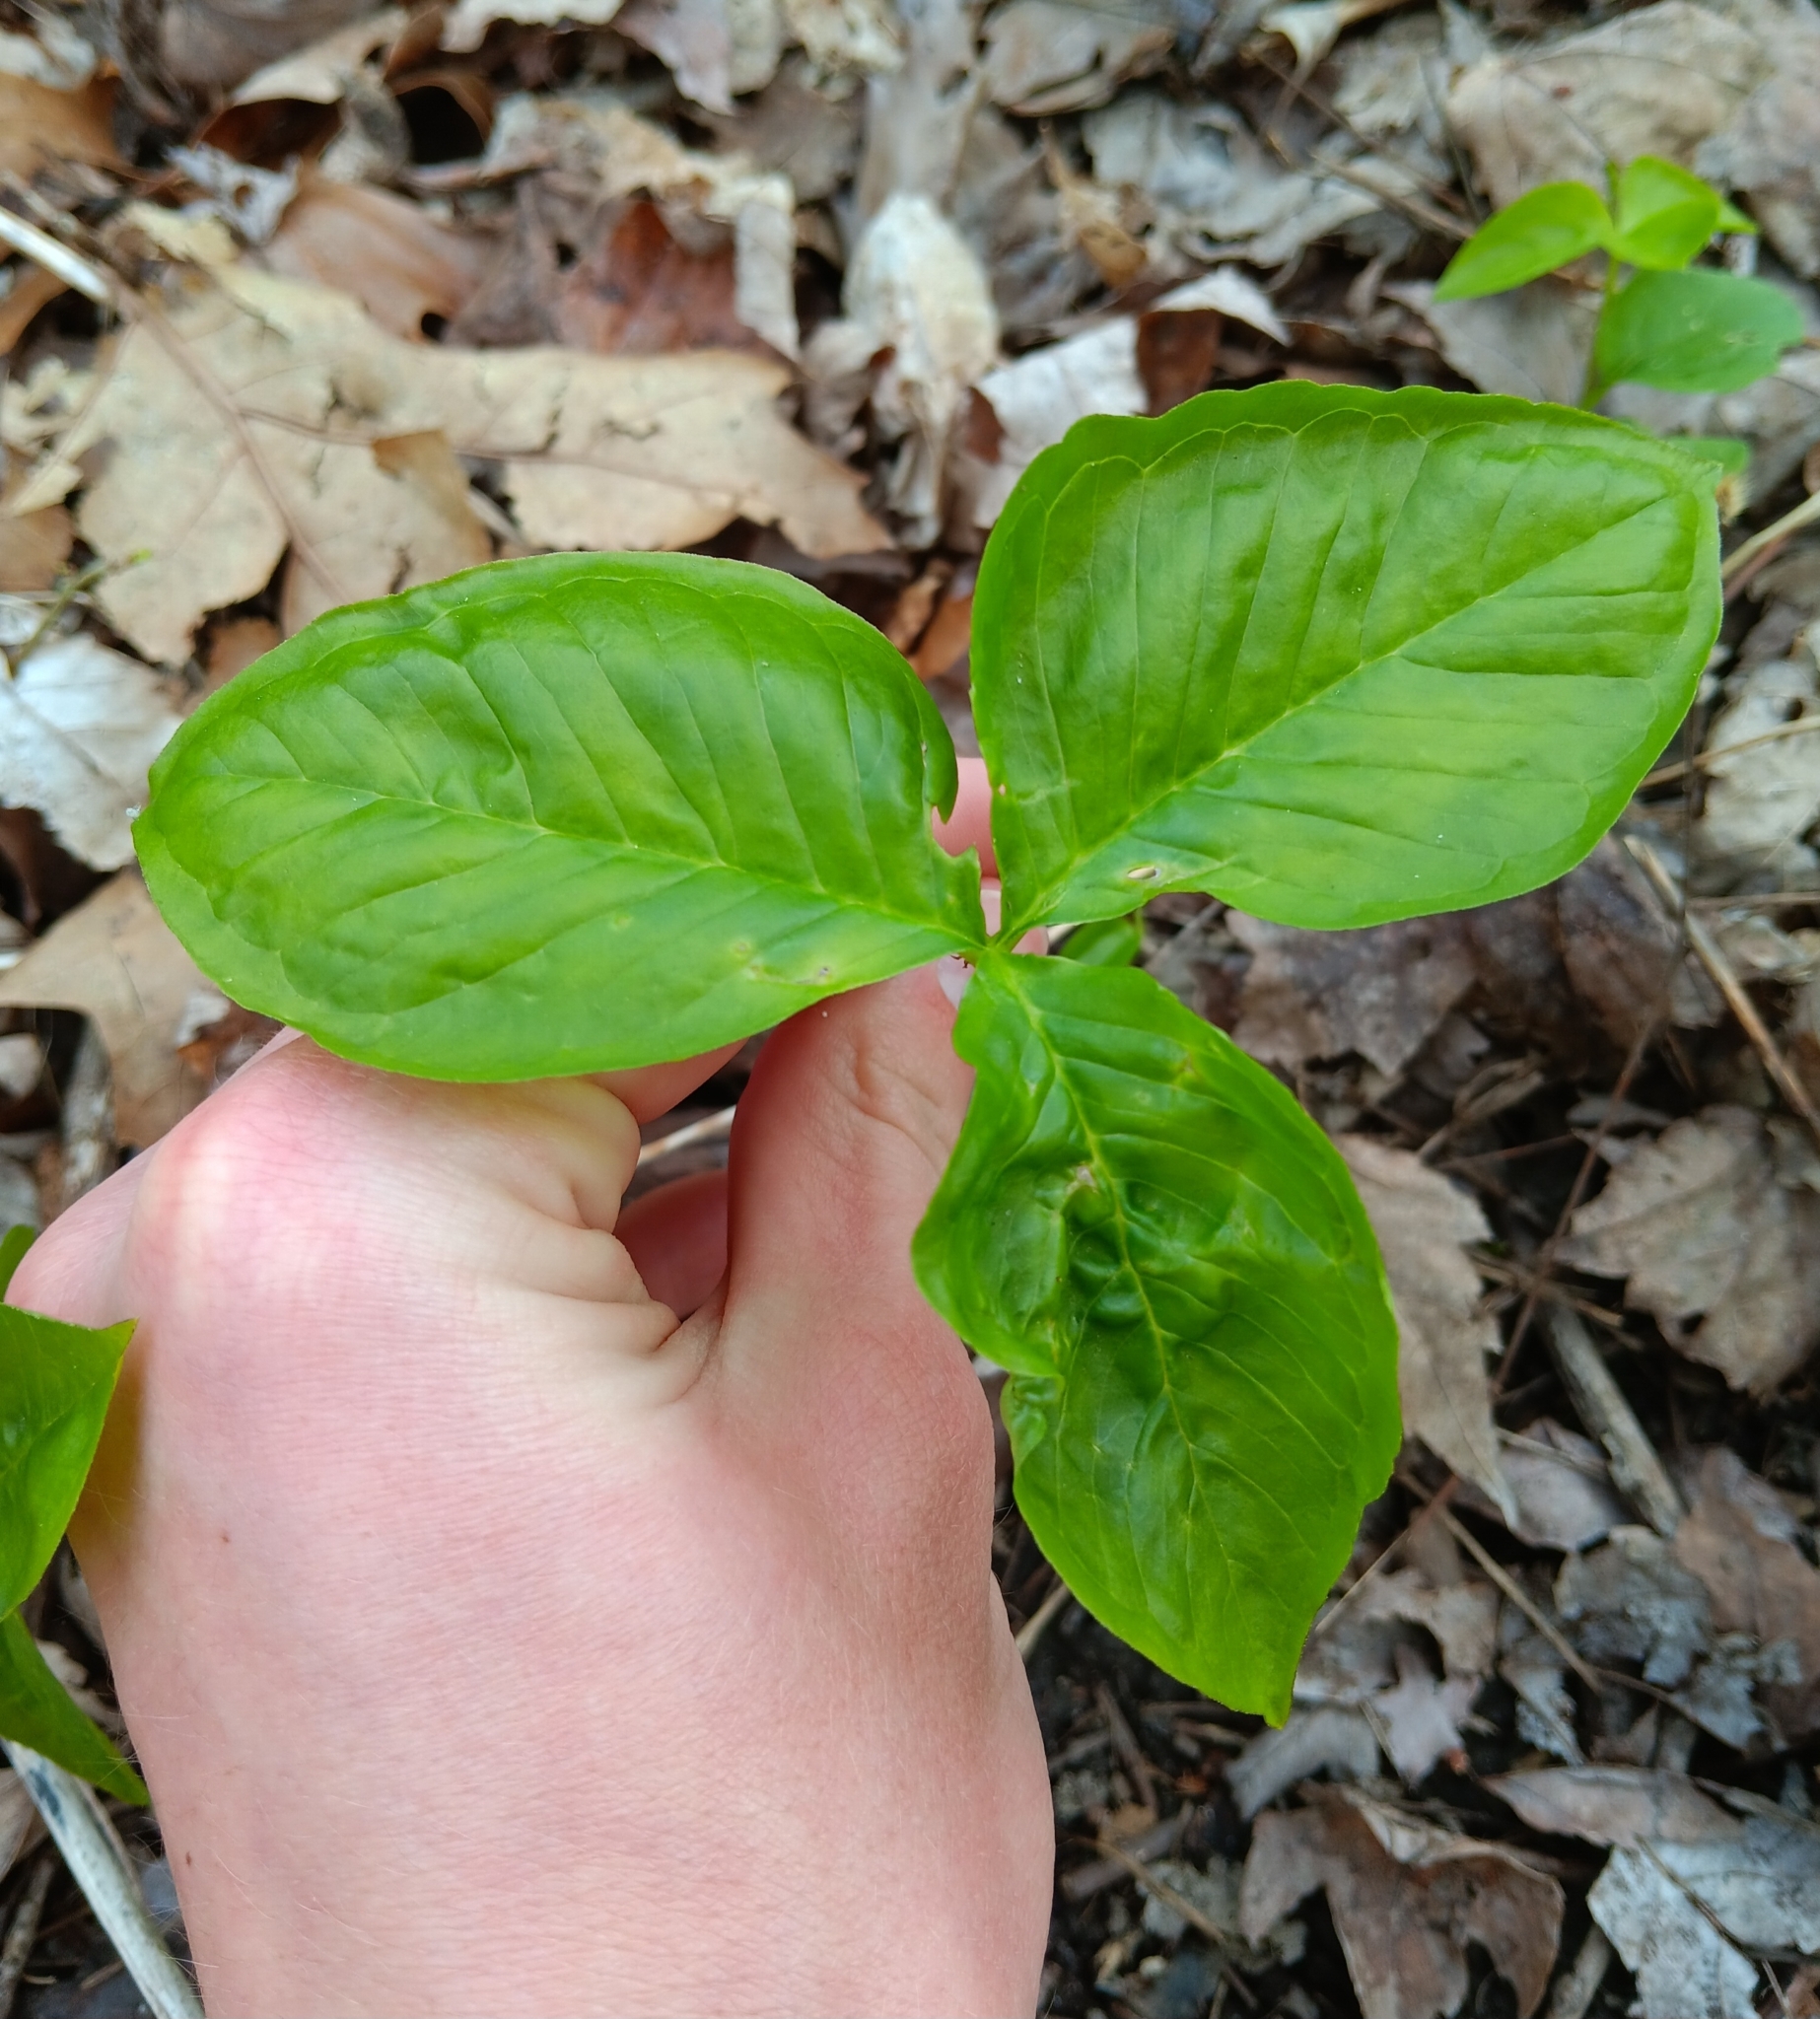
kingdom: Plantae
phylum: Tracheophyta
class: Liliopsida
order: Alismatales
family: Araceae
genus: Arisaema
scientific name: Arisaema triphyllum
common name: Jack-in-the-pulpit
